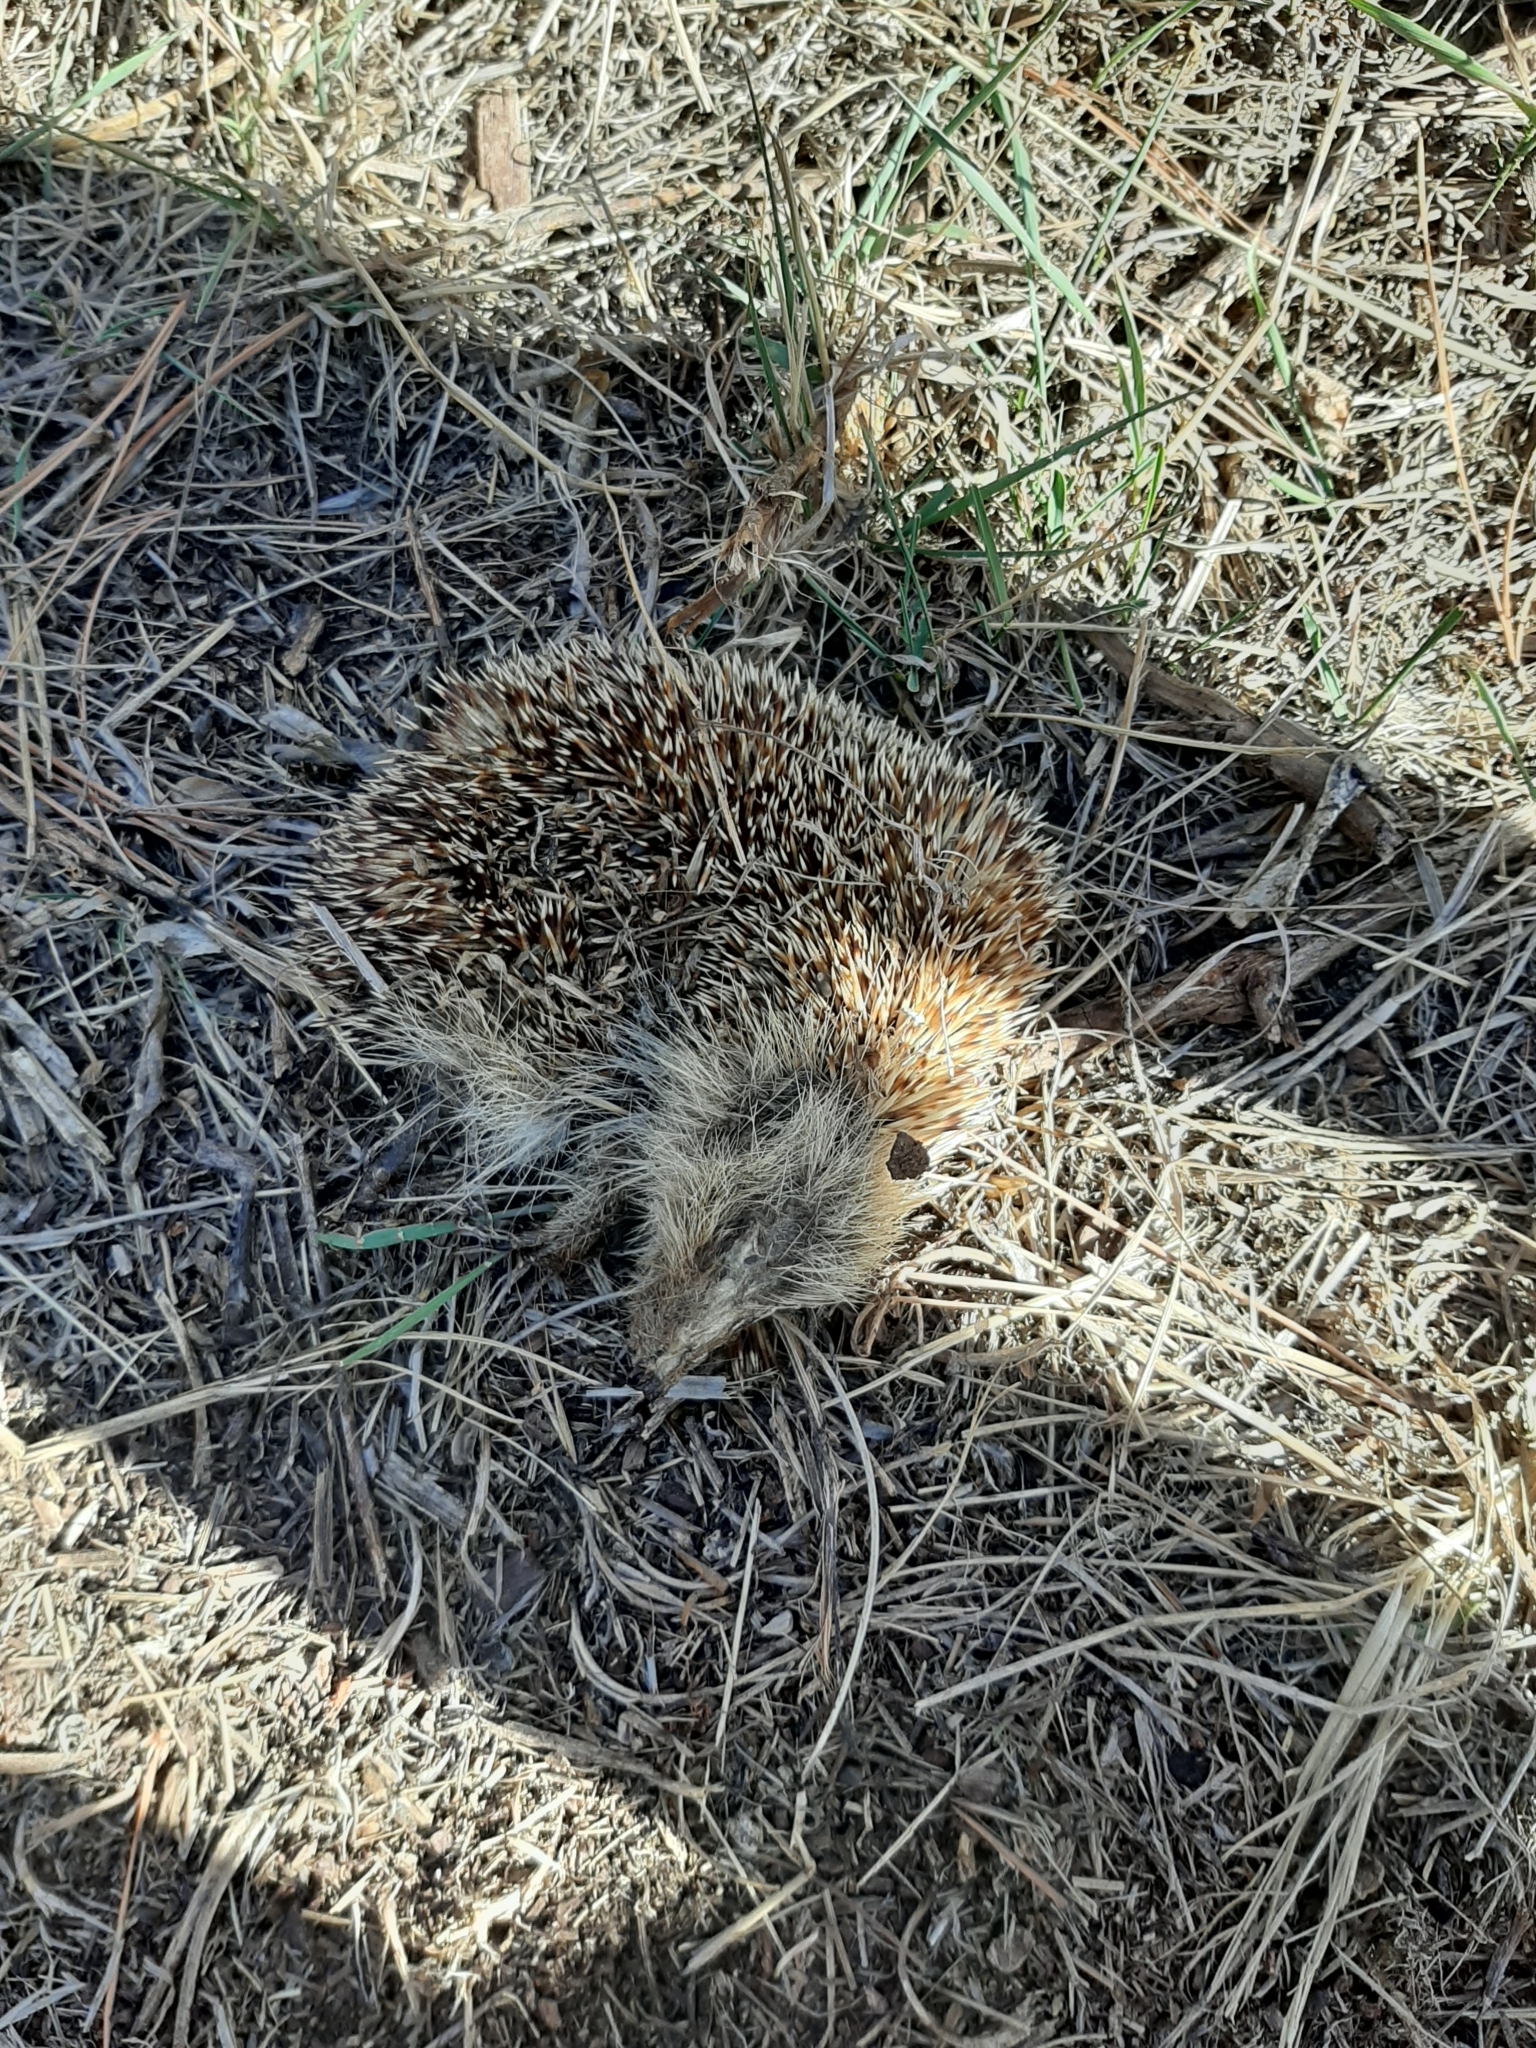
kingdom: Animalia
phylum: Chordata
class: Mammalia
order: Erinaceomorpha
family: Erinaceidae
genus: Erinaceus
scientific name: Erinaceus europaeus
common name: West european hedgehog
